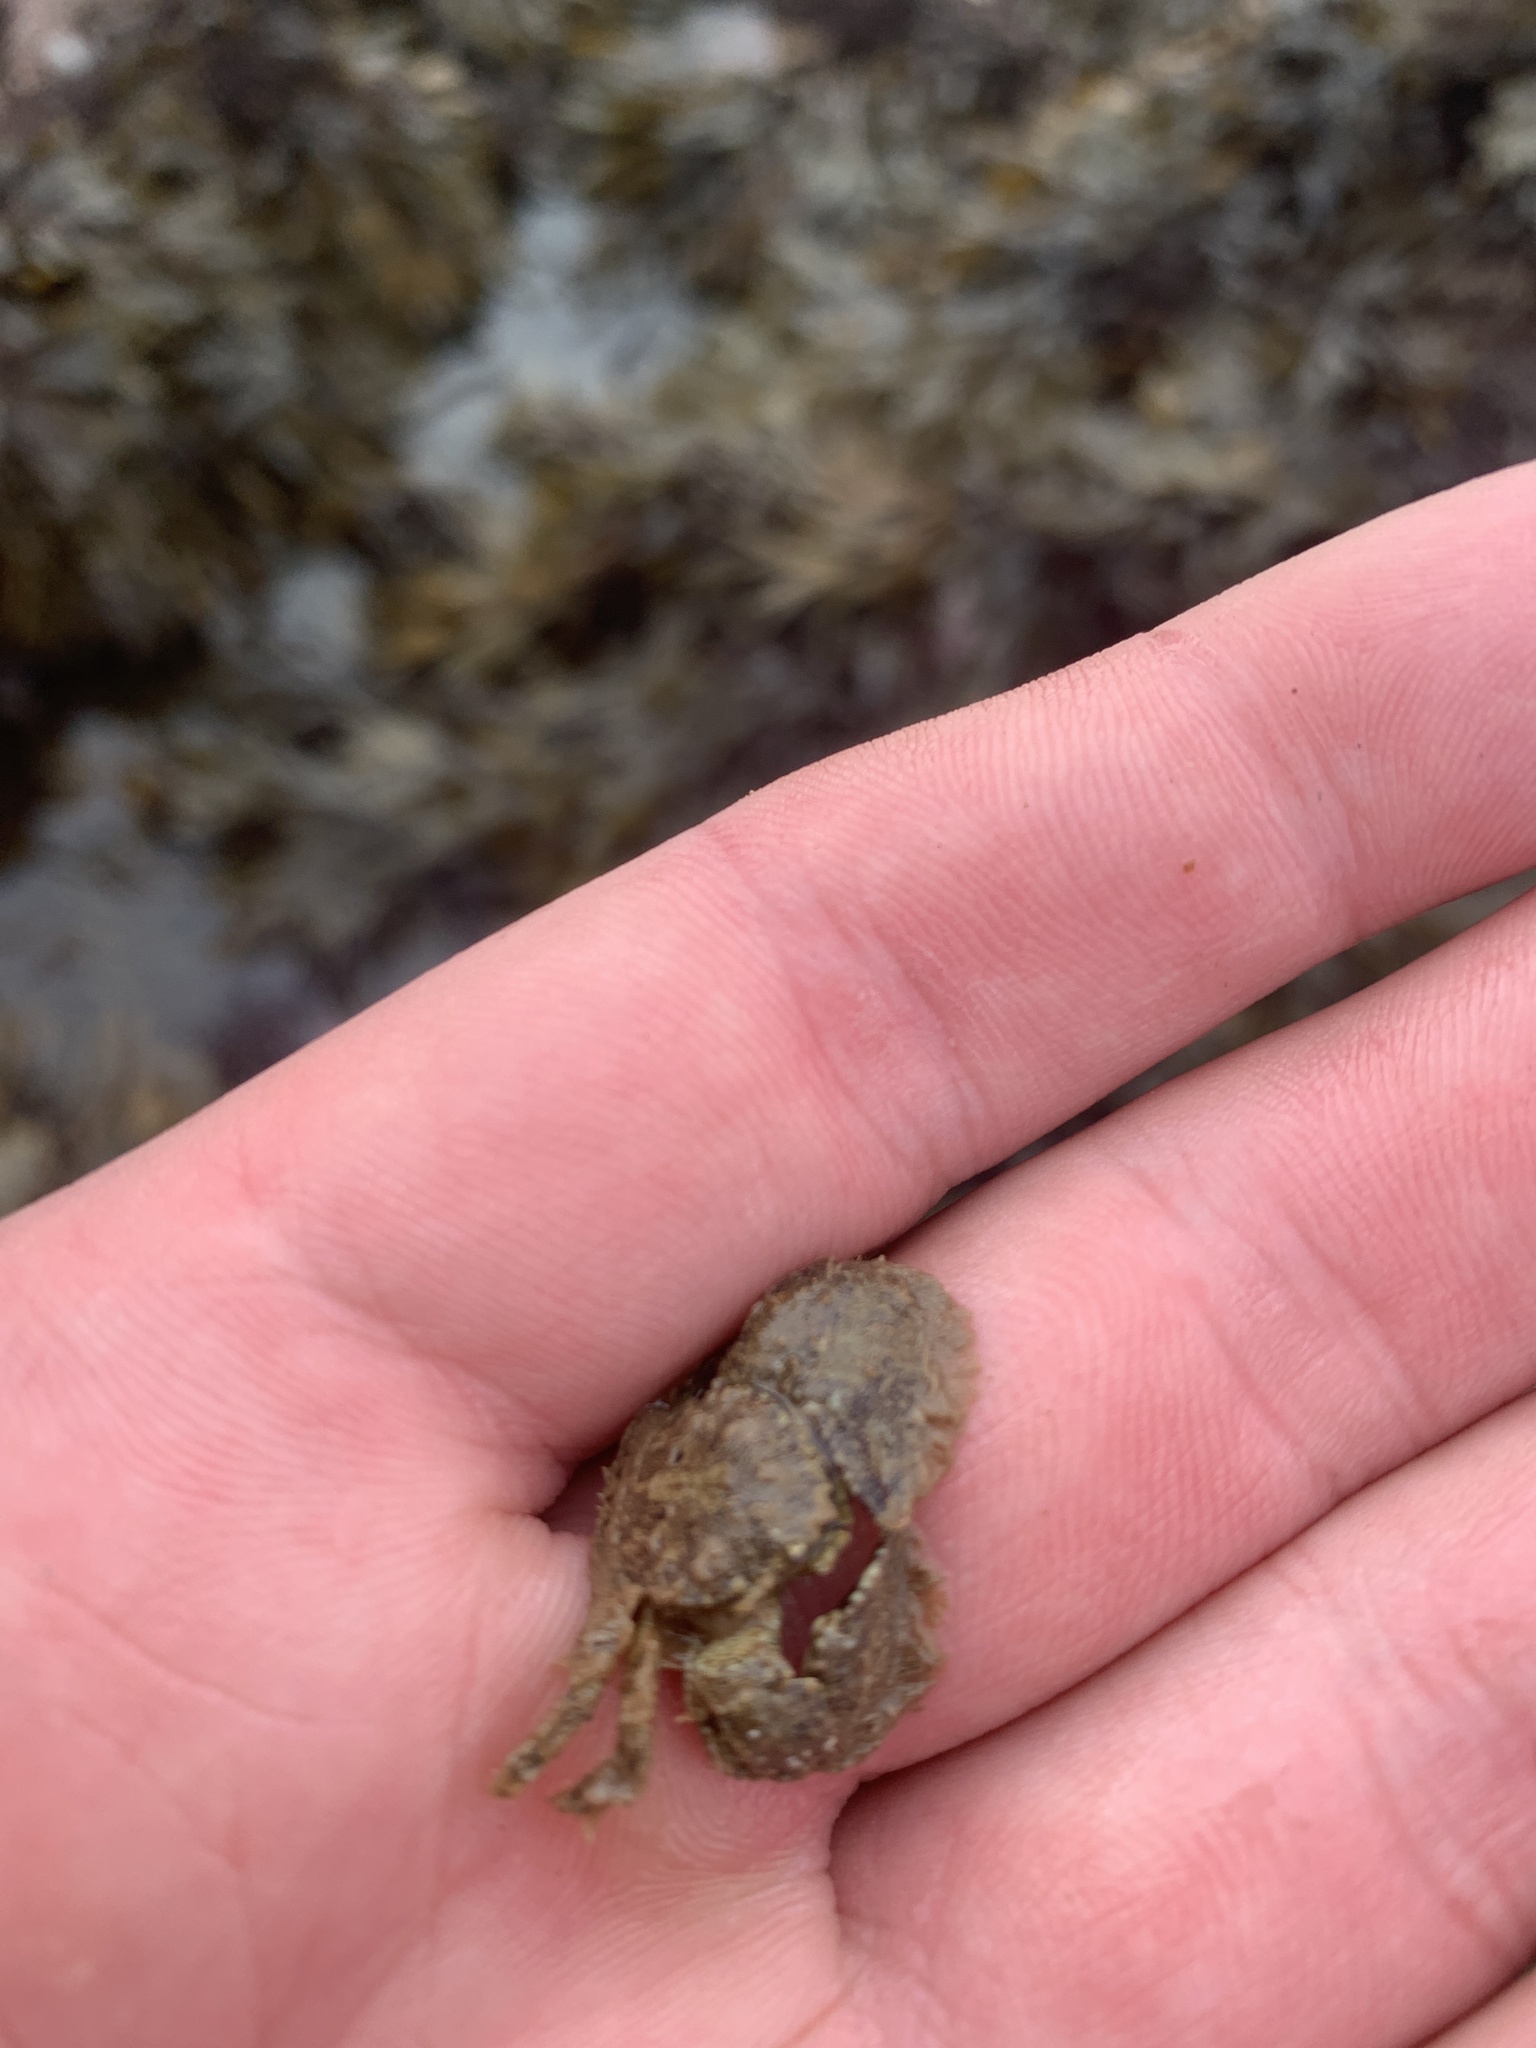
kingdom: Animalia
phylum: Arthropoda
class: Malacostraca
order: Decapoda
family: Porcellanidae
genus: Porcellana
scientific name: Porcellana platycheles
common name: Porcelain crab
